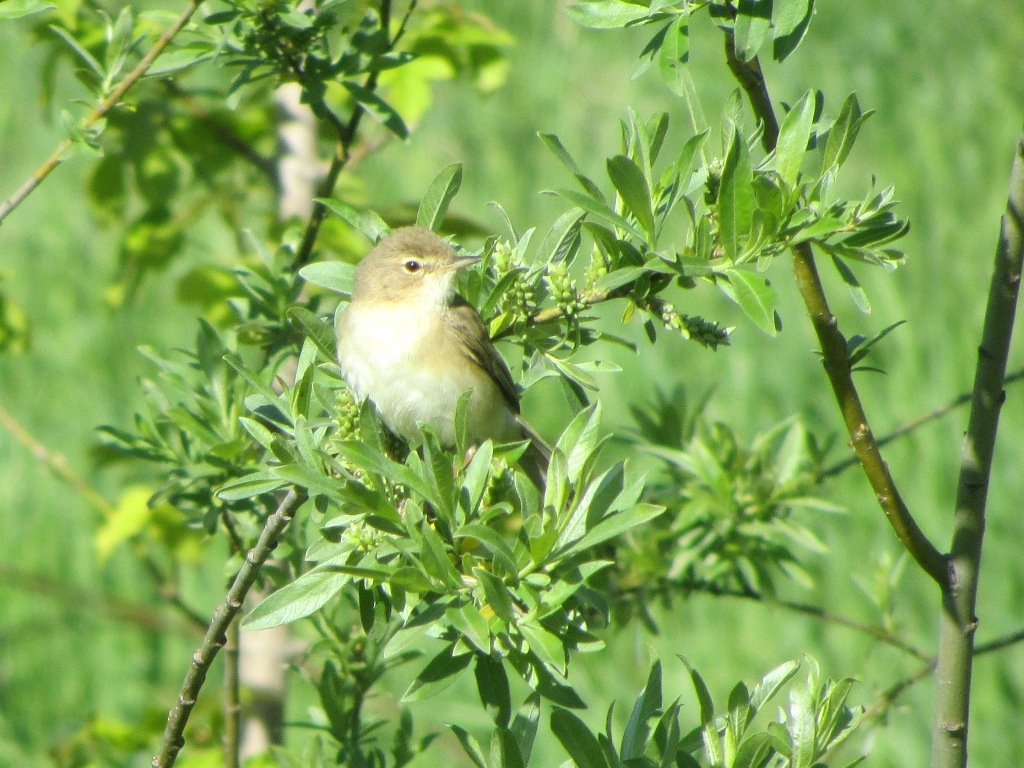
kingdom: Animalia
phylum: Chordata
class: Aves
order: Passeriformes
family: Acrocephalidae
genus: Iduna
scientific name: Iduna caligata
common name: Booted warbler
